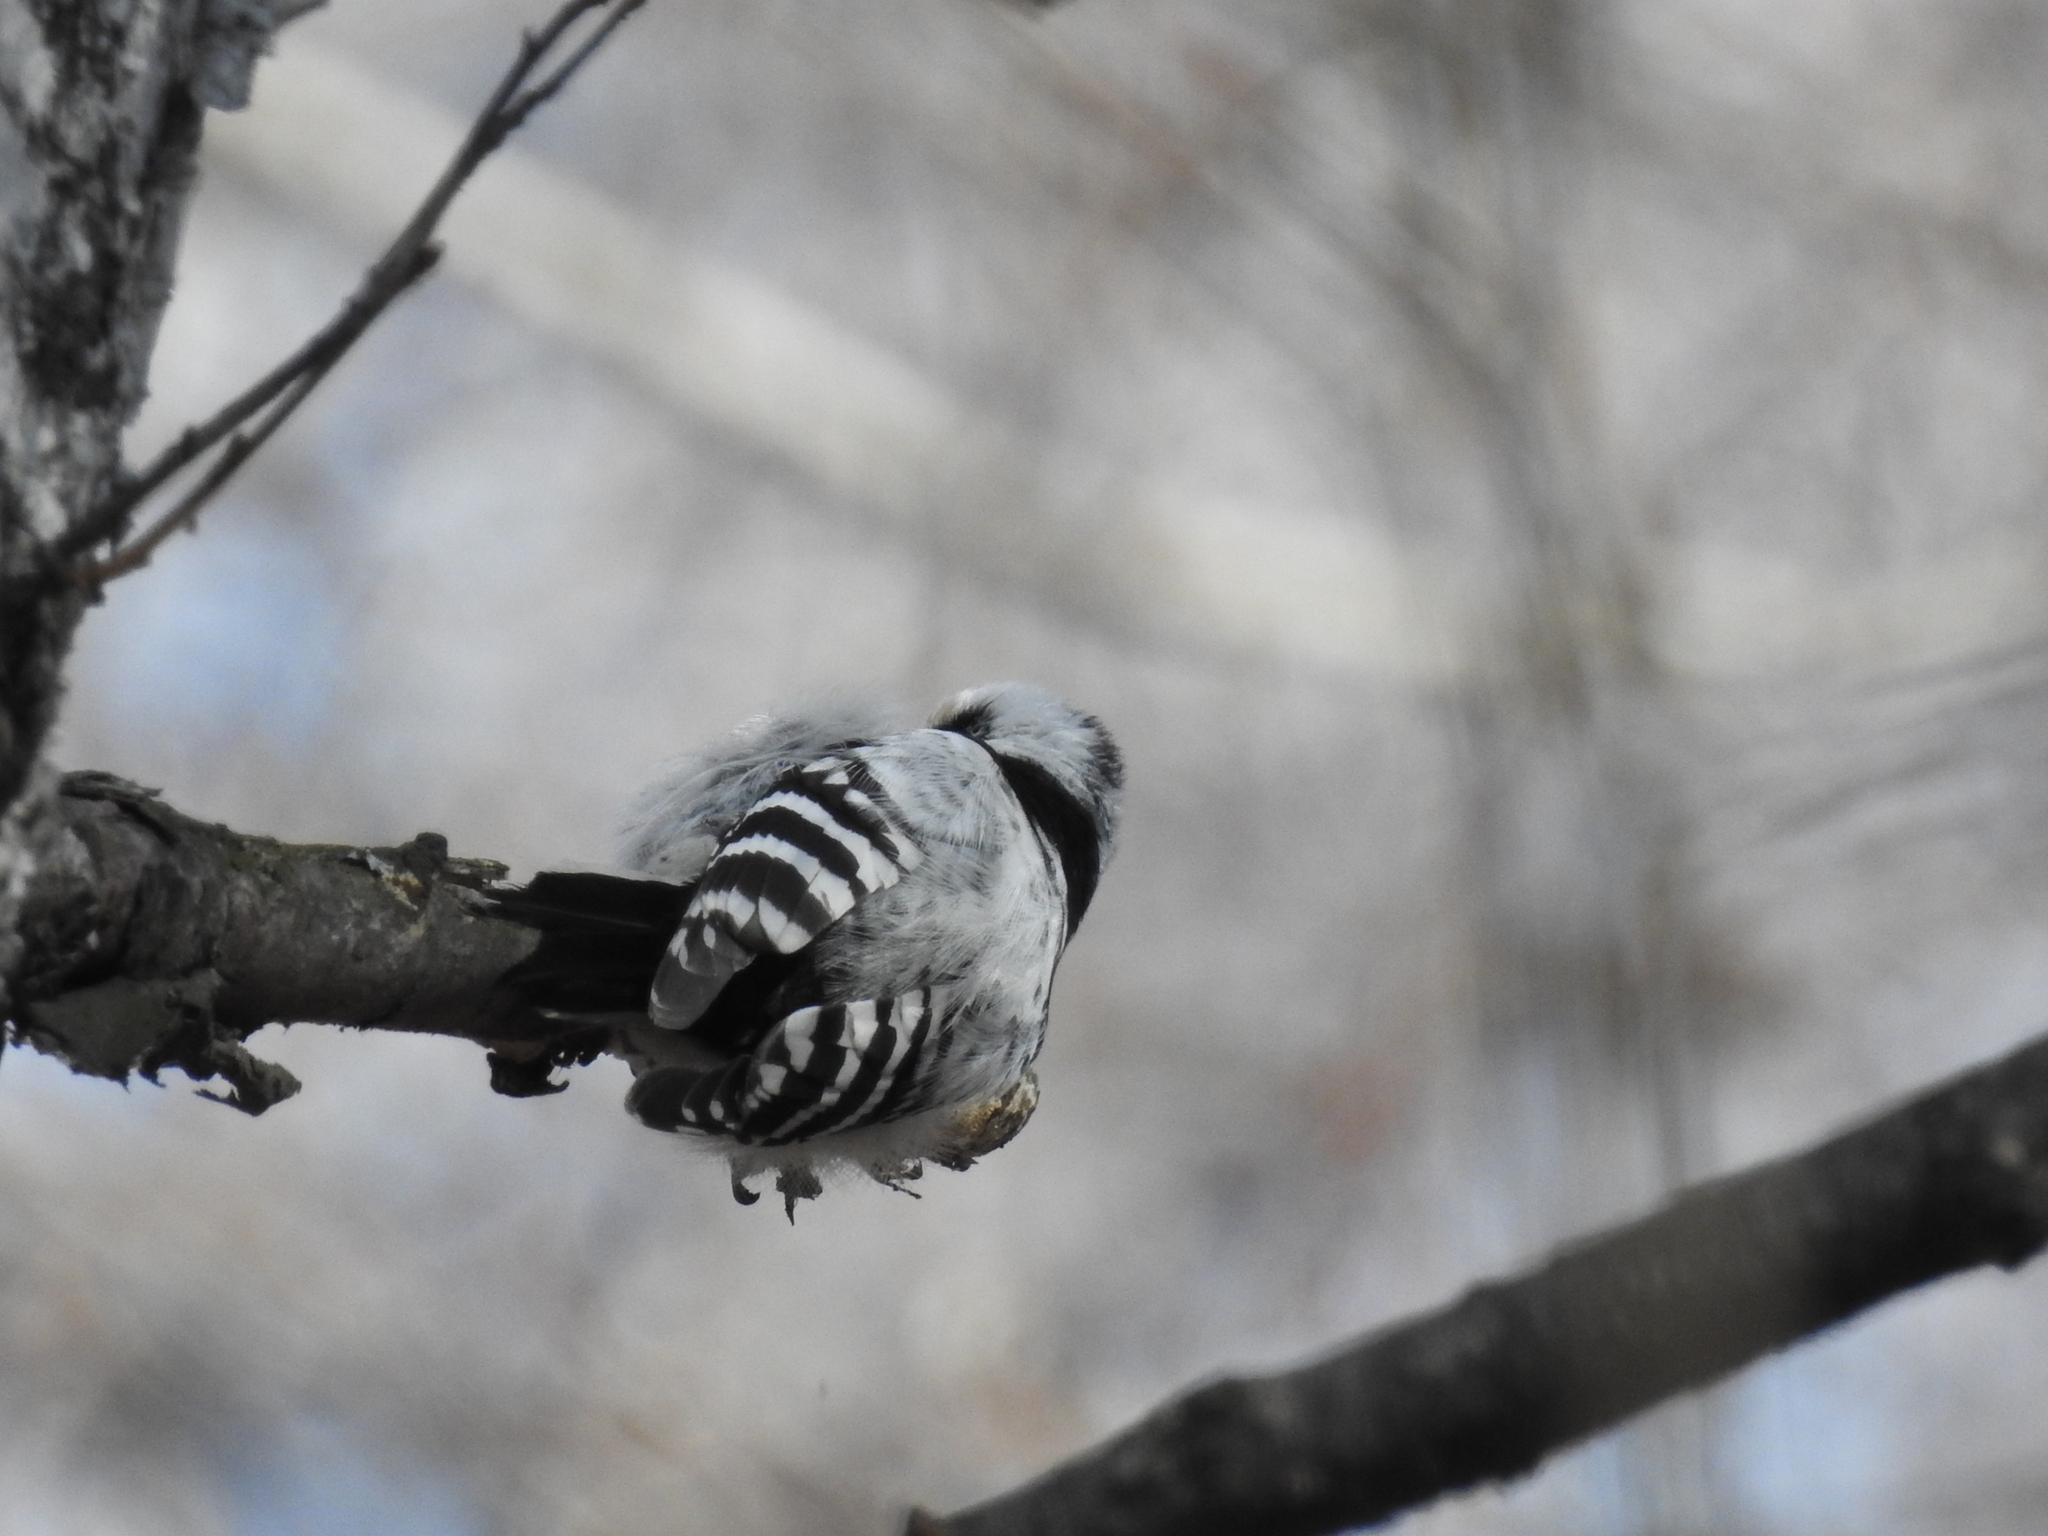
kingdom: Animalia
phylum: Chordata
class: Aves
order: Piciformes
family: Picidae
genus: Dryobates
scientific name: Dryobates minor
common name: Lesser spotted woodpecker
